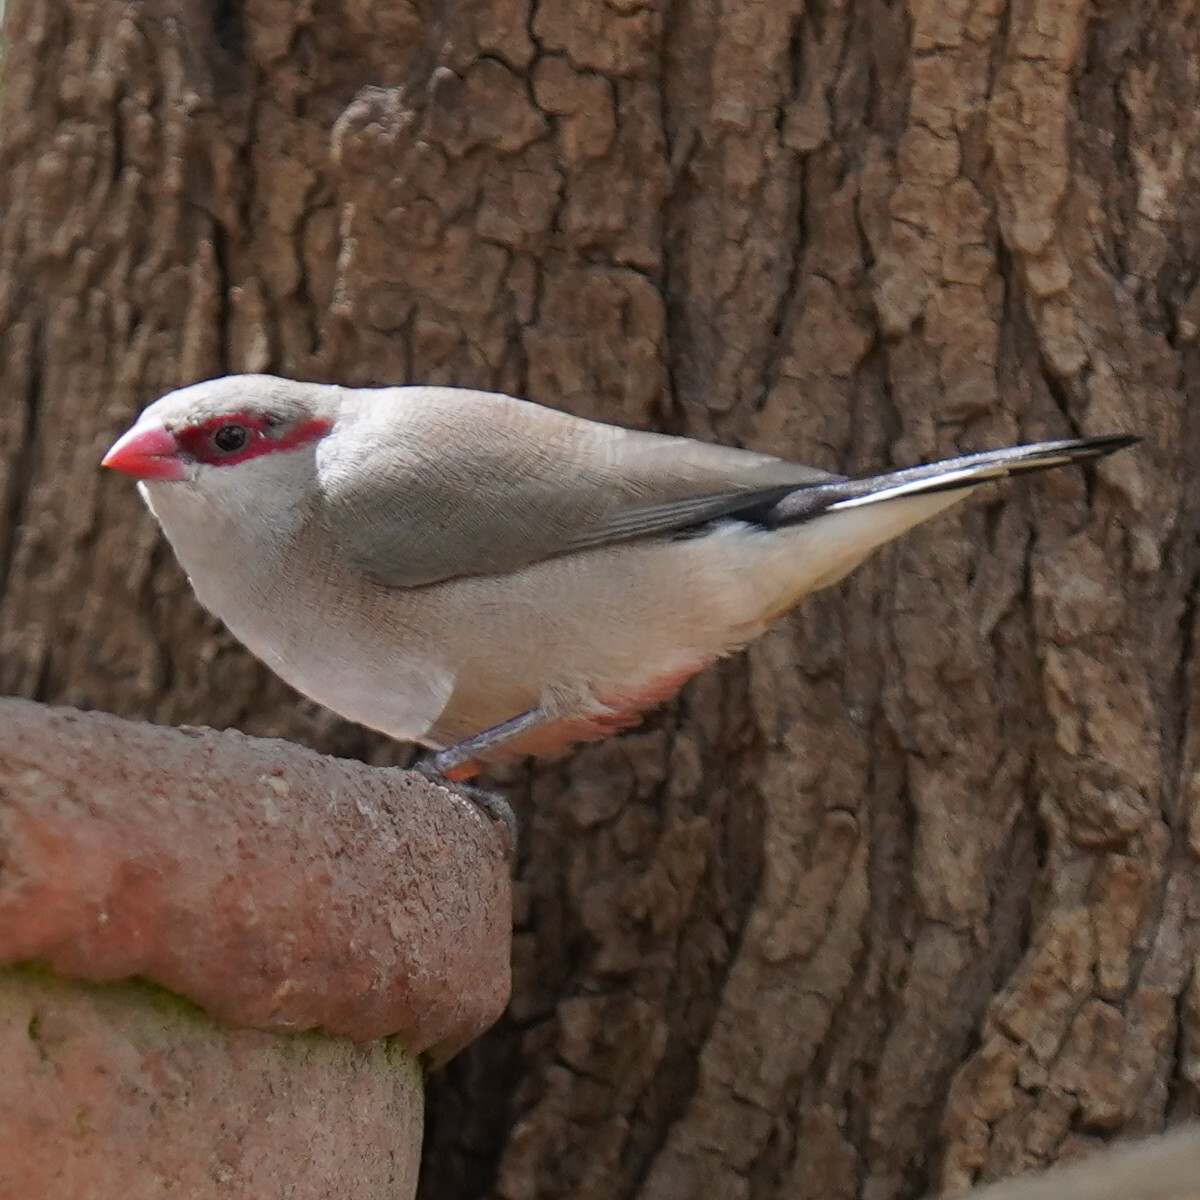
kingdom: Animalia
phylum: Chordata
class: Aves
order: Passeriformes
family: Estrildidae
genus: Estrilda
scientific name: Estrilda troglodytes
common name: Black-rumped waxbill
